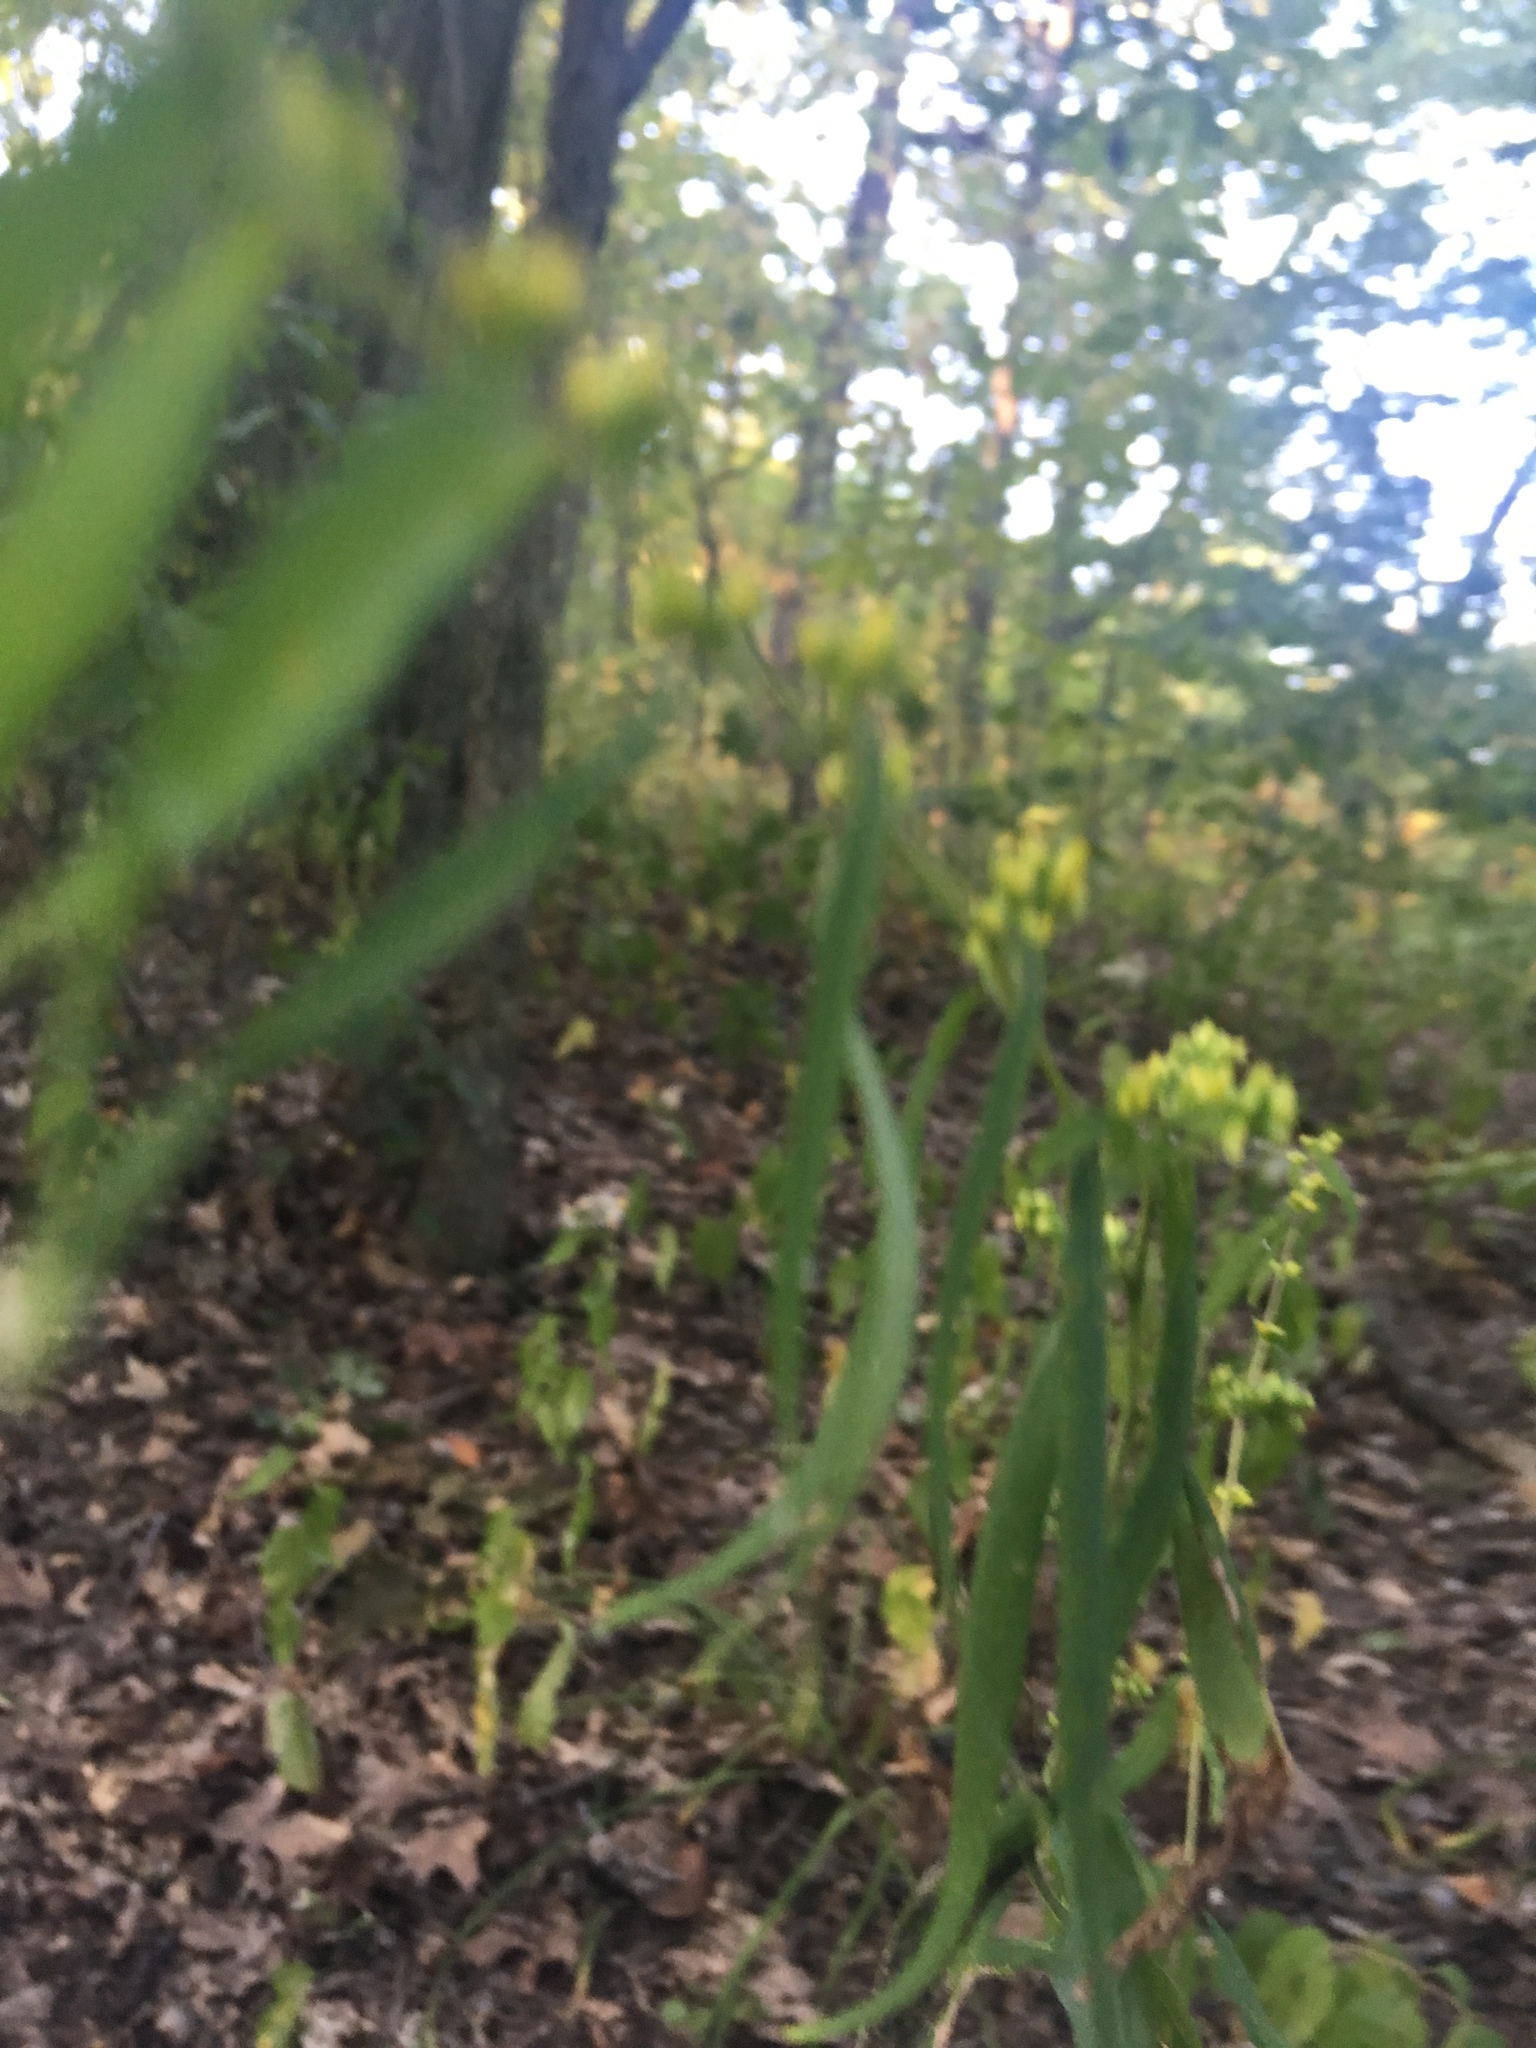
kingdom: Plantae
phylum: Tracheophyta
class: Magnoliopsida
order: Asterales
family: Asteraceae
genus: Solidago
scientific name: Solidago caesia
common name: Woodland goldenrod
